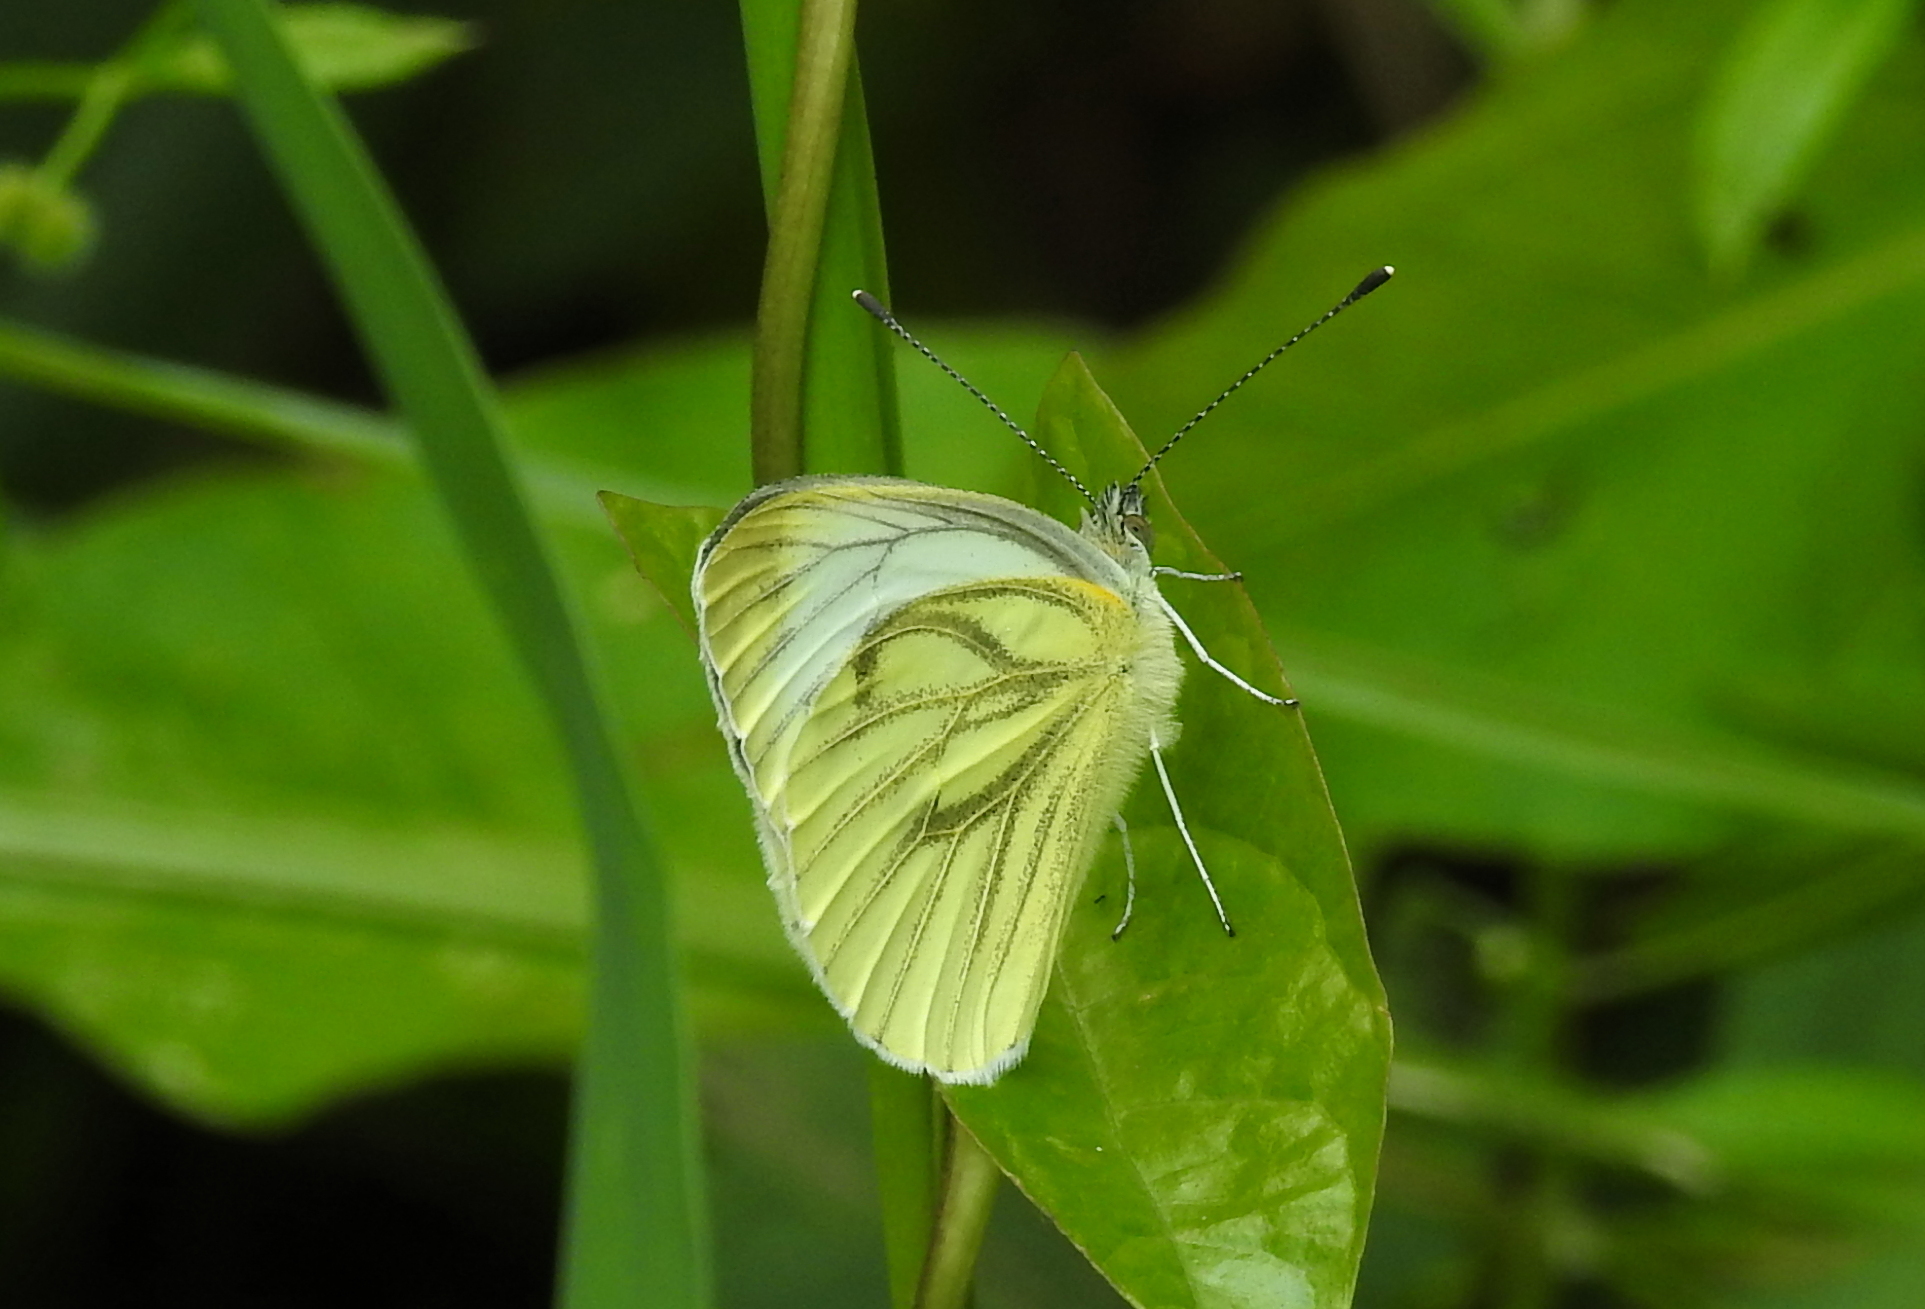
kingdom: Animalia
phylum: Arthropoda
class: Insecta
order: Lepidoptera
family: Pieridae
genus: Pieris
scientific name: Pieris napi
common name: Green-veined white
